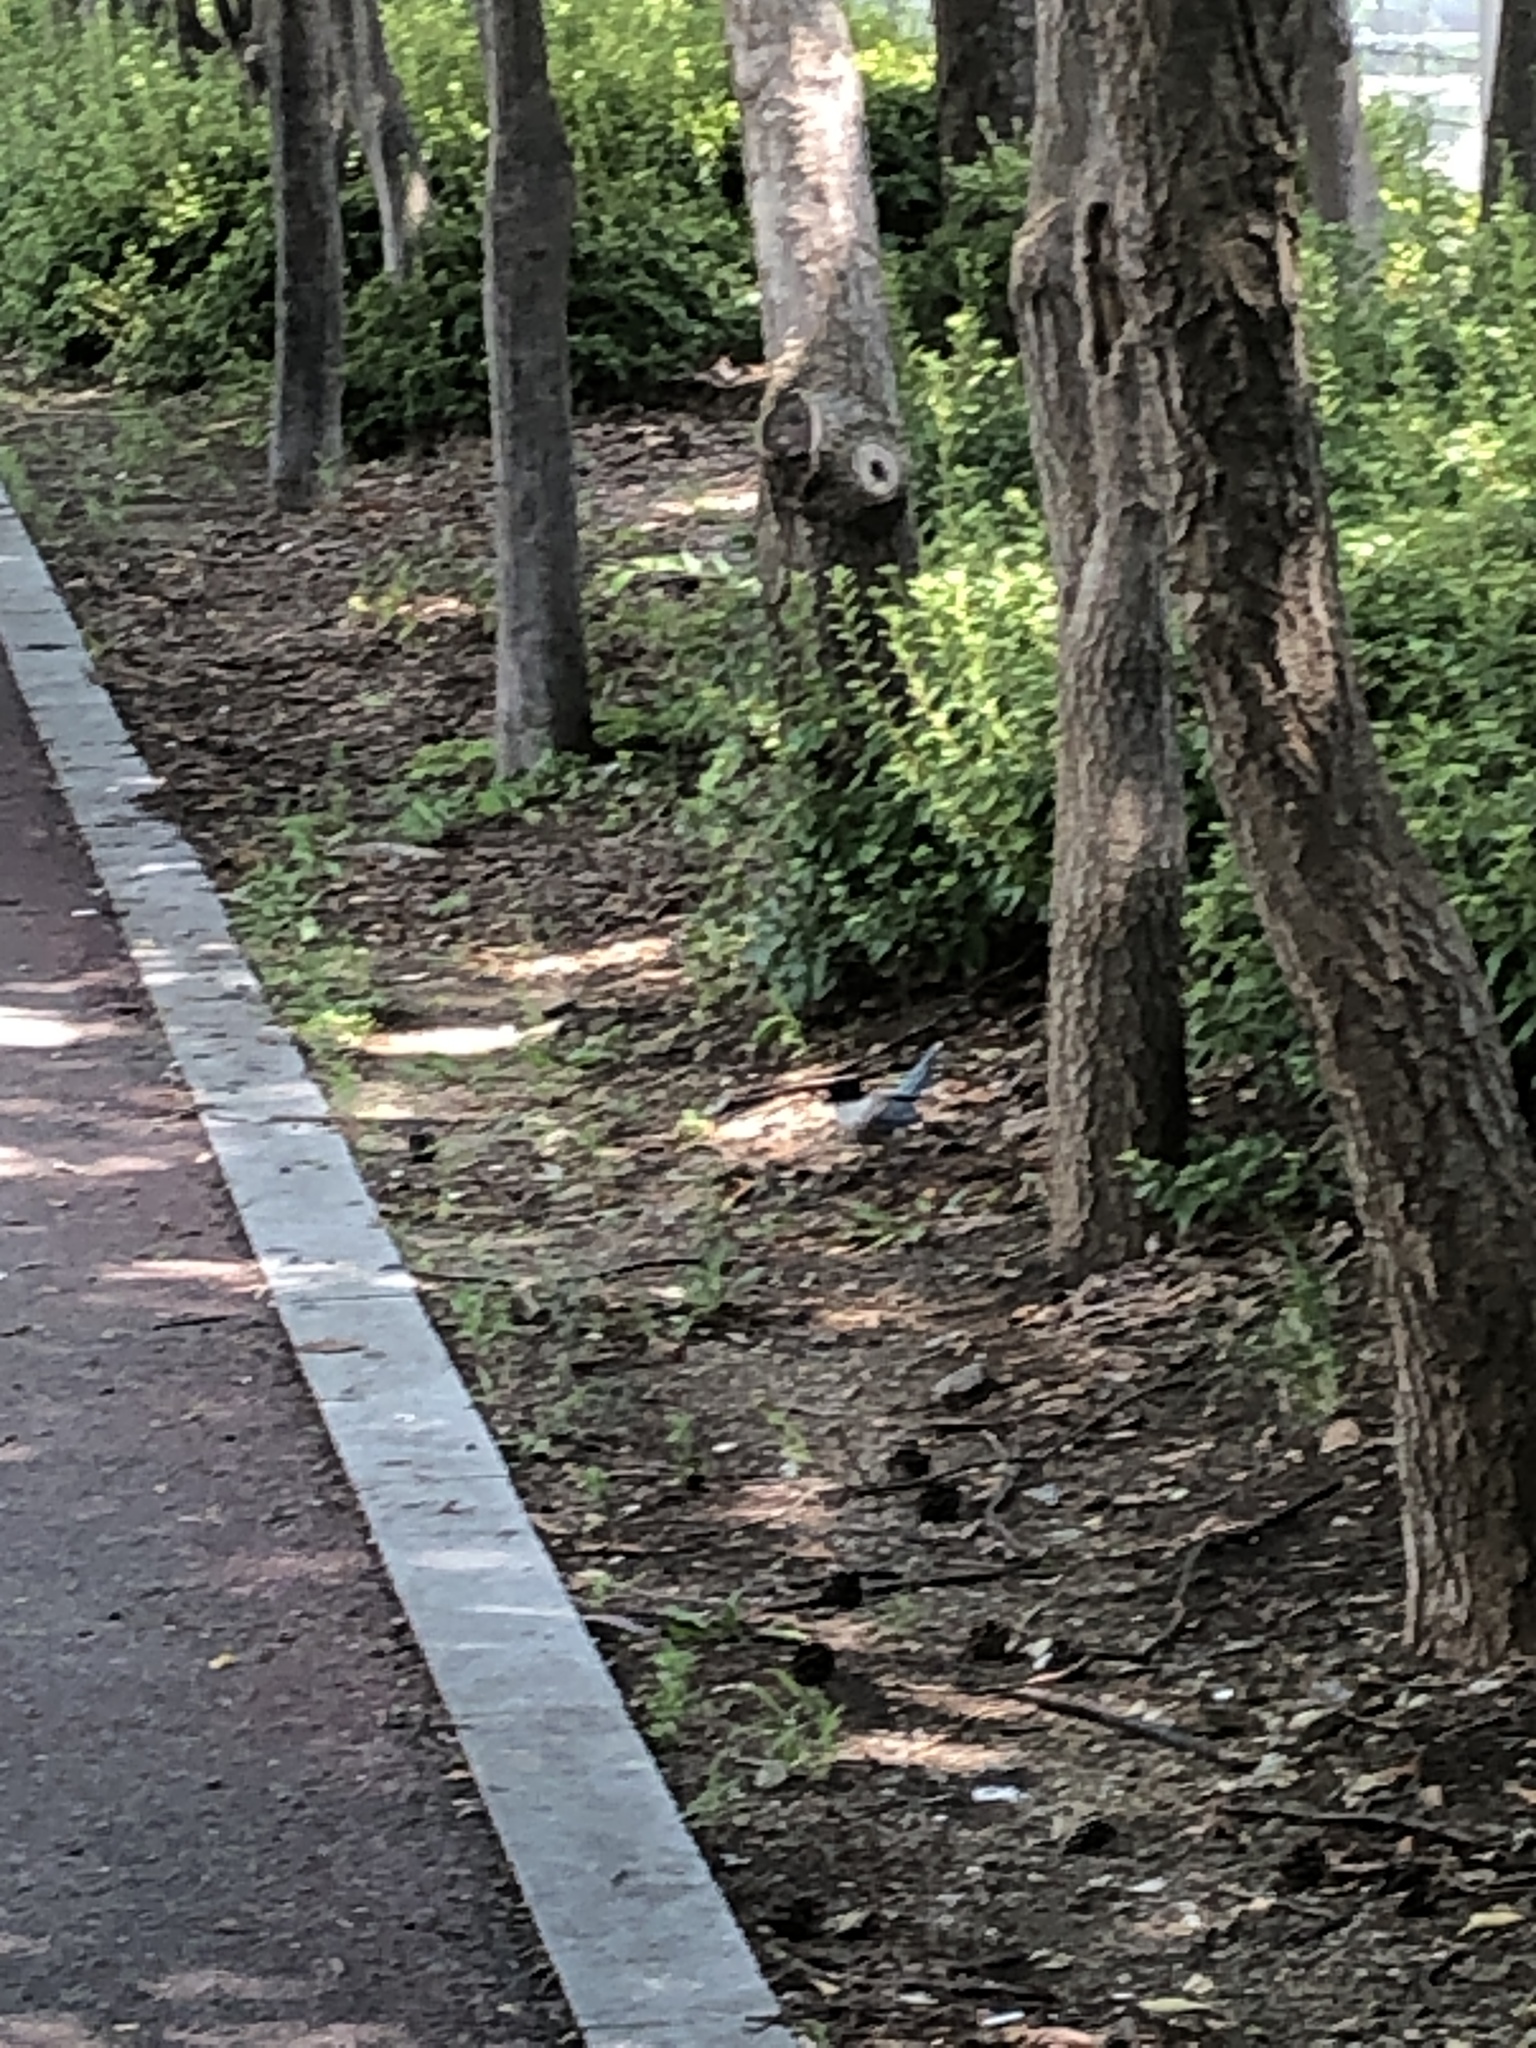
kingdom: Animalia
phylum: Chordata
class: Aves
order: Passeriformes
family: Corvidae
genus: Cyanopica
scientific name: Cyanopica cyanus
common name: Azure-winged magpie
